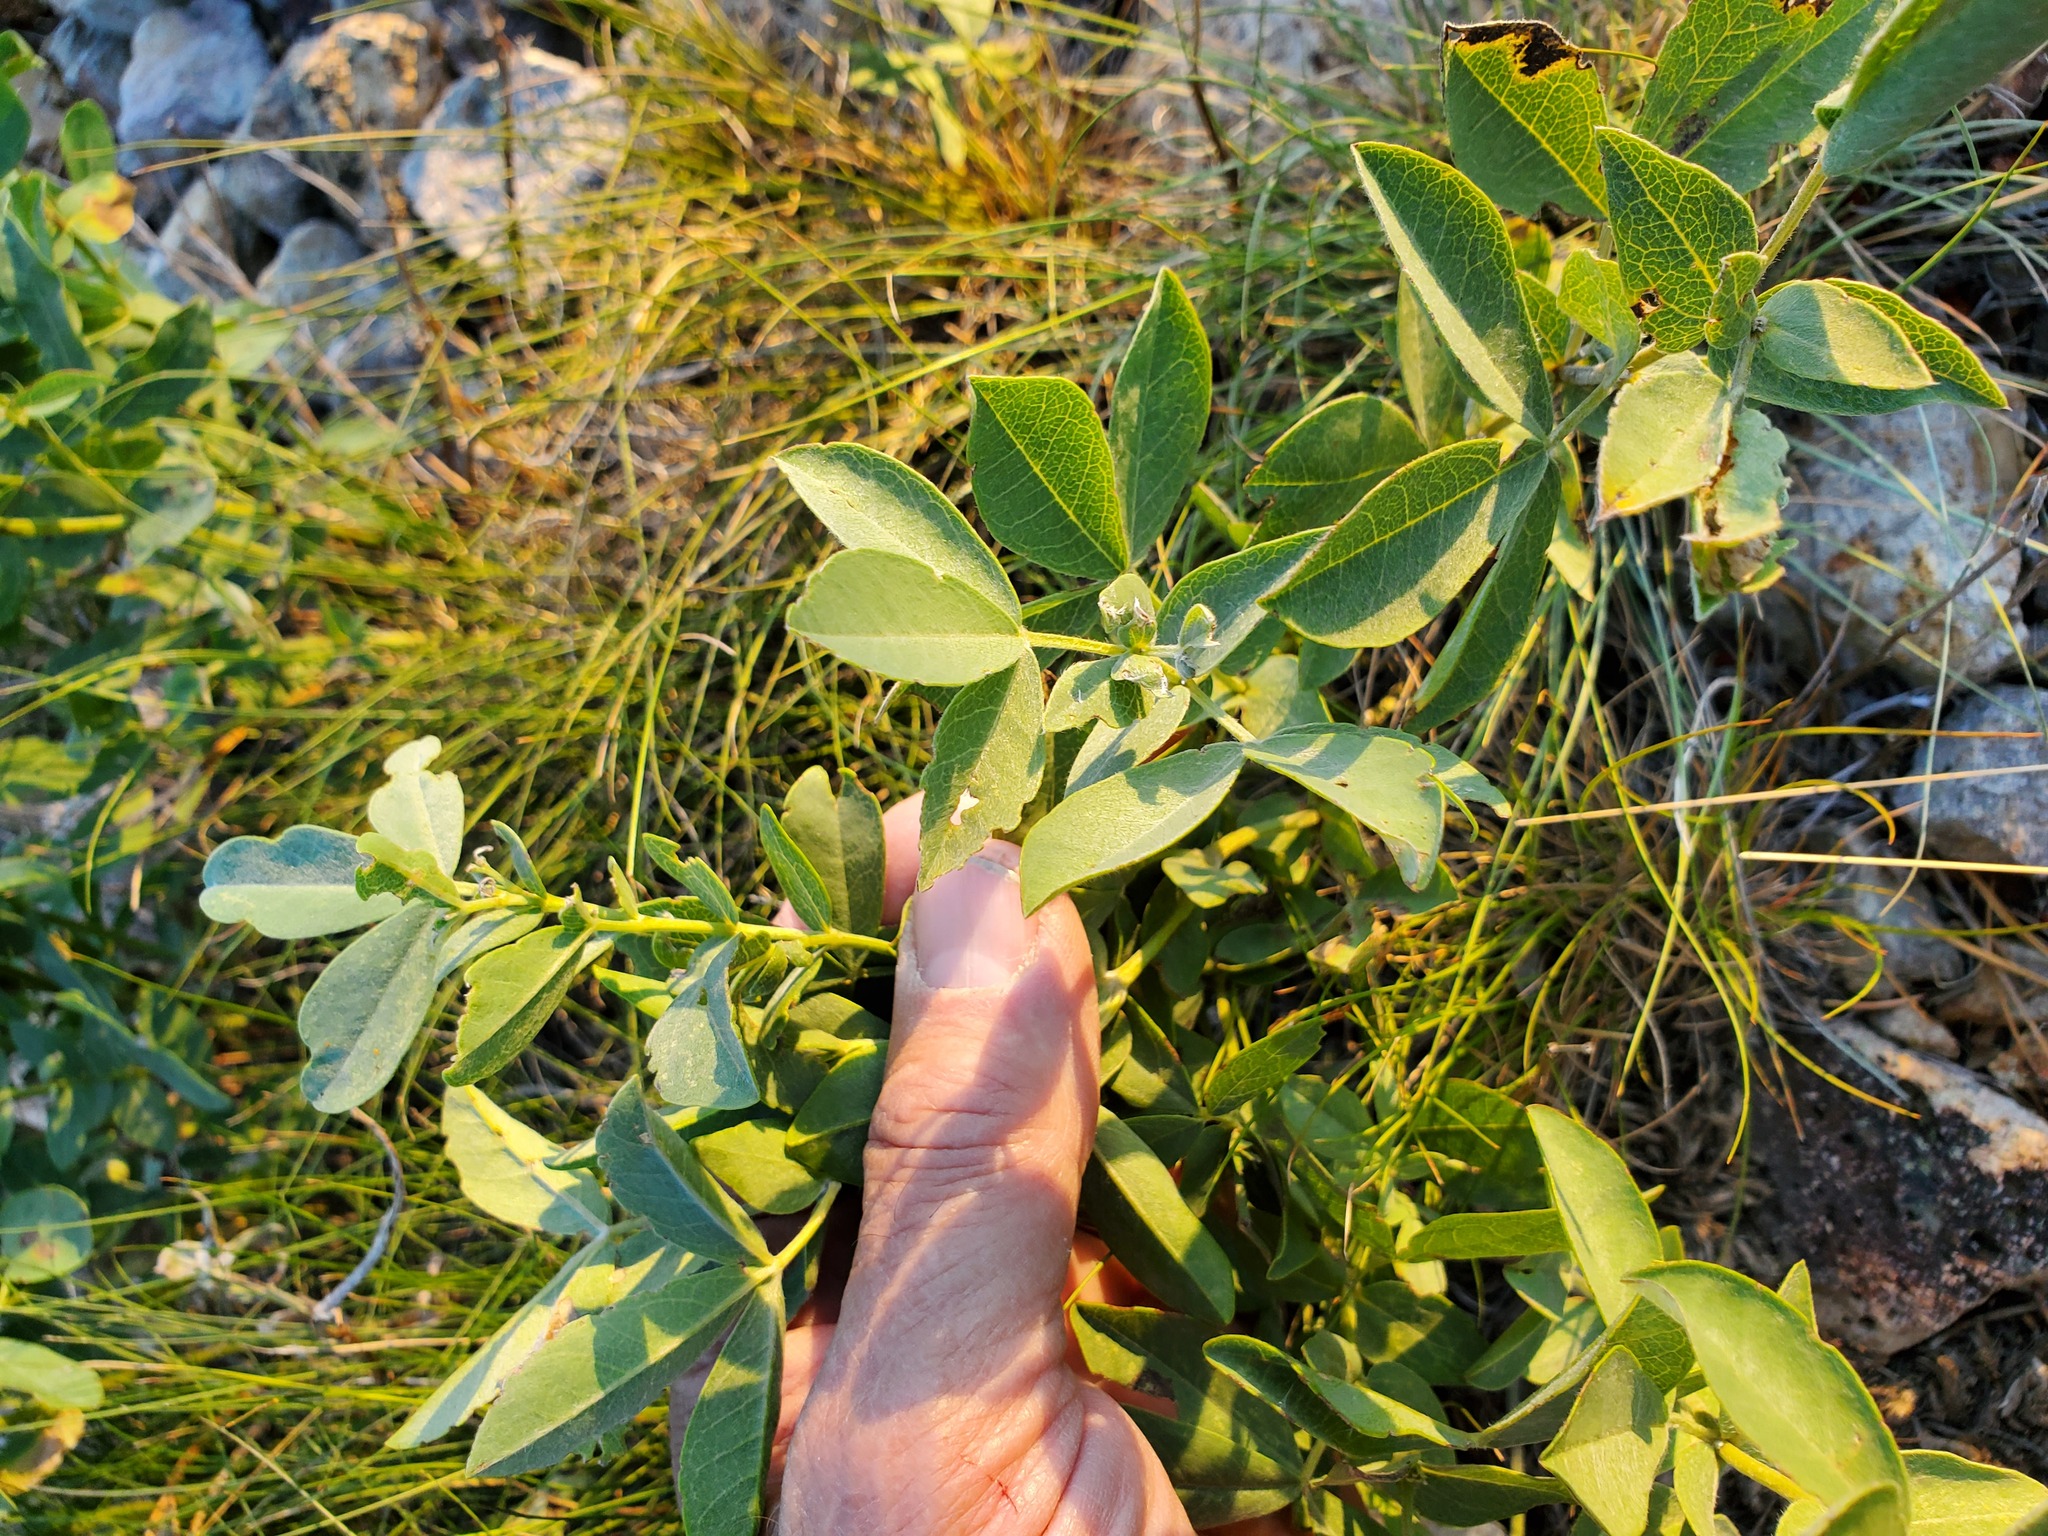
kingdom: Plantae
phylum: Tracheophyta
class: Magnoliopsida
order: Fabales
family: Fabaceae
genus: Thermopsis
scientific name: Thermopsis rhombifolia
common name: Circle-pod-pea
